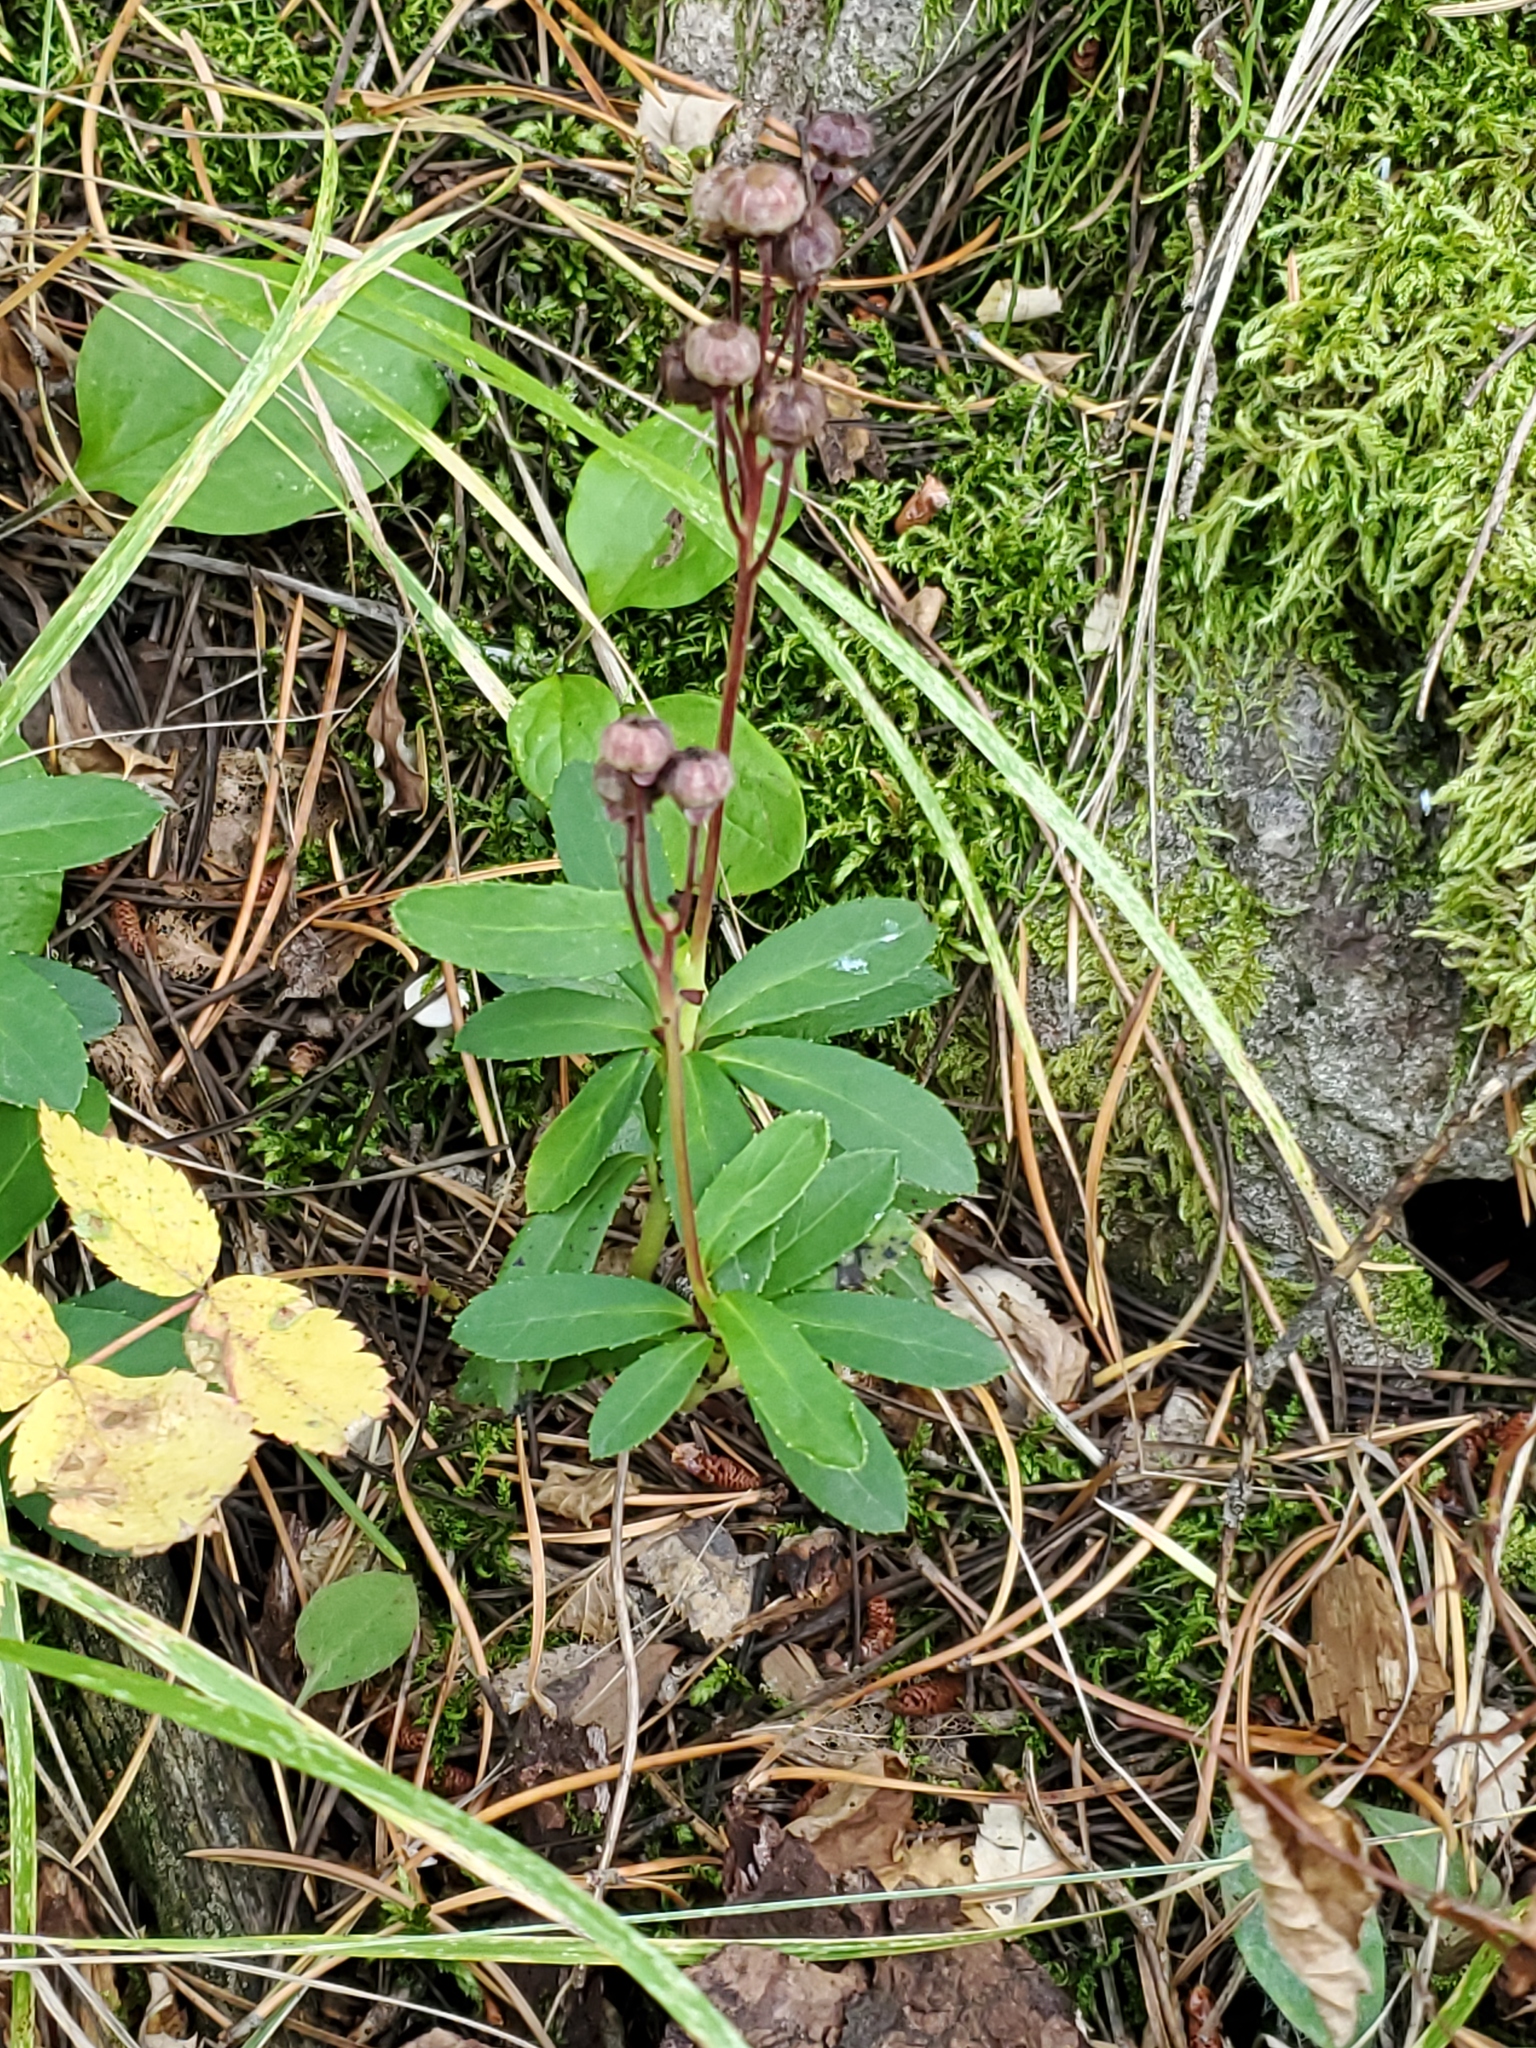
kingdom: Plantae
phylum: Tracheophyta
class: Magnoliopsida
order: Ericales
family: Ericaceae
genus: Chimaphila
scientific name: Chimaphila umbellata
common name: Pipsissewa
